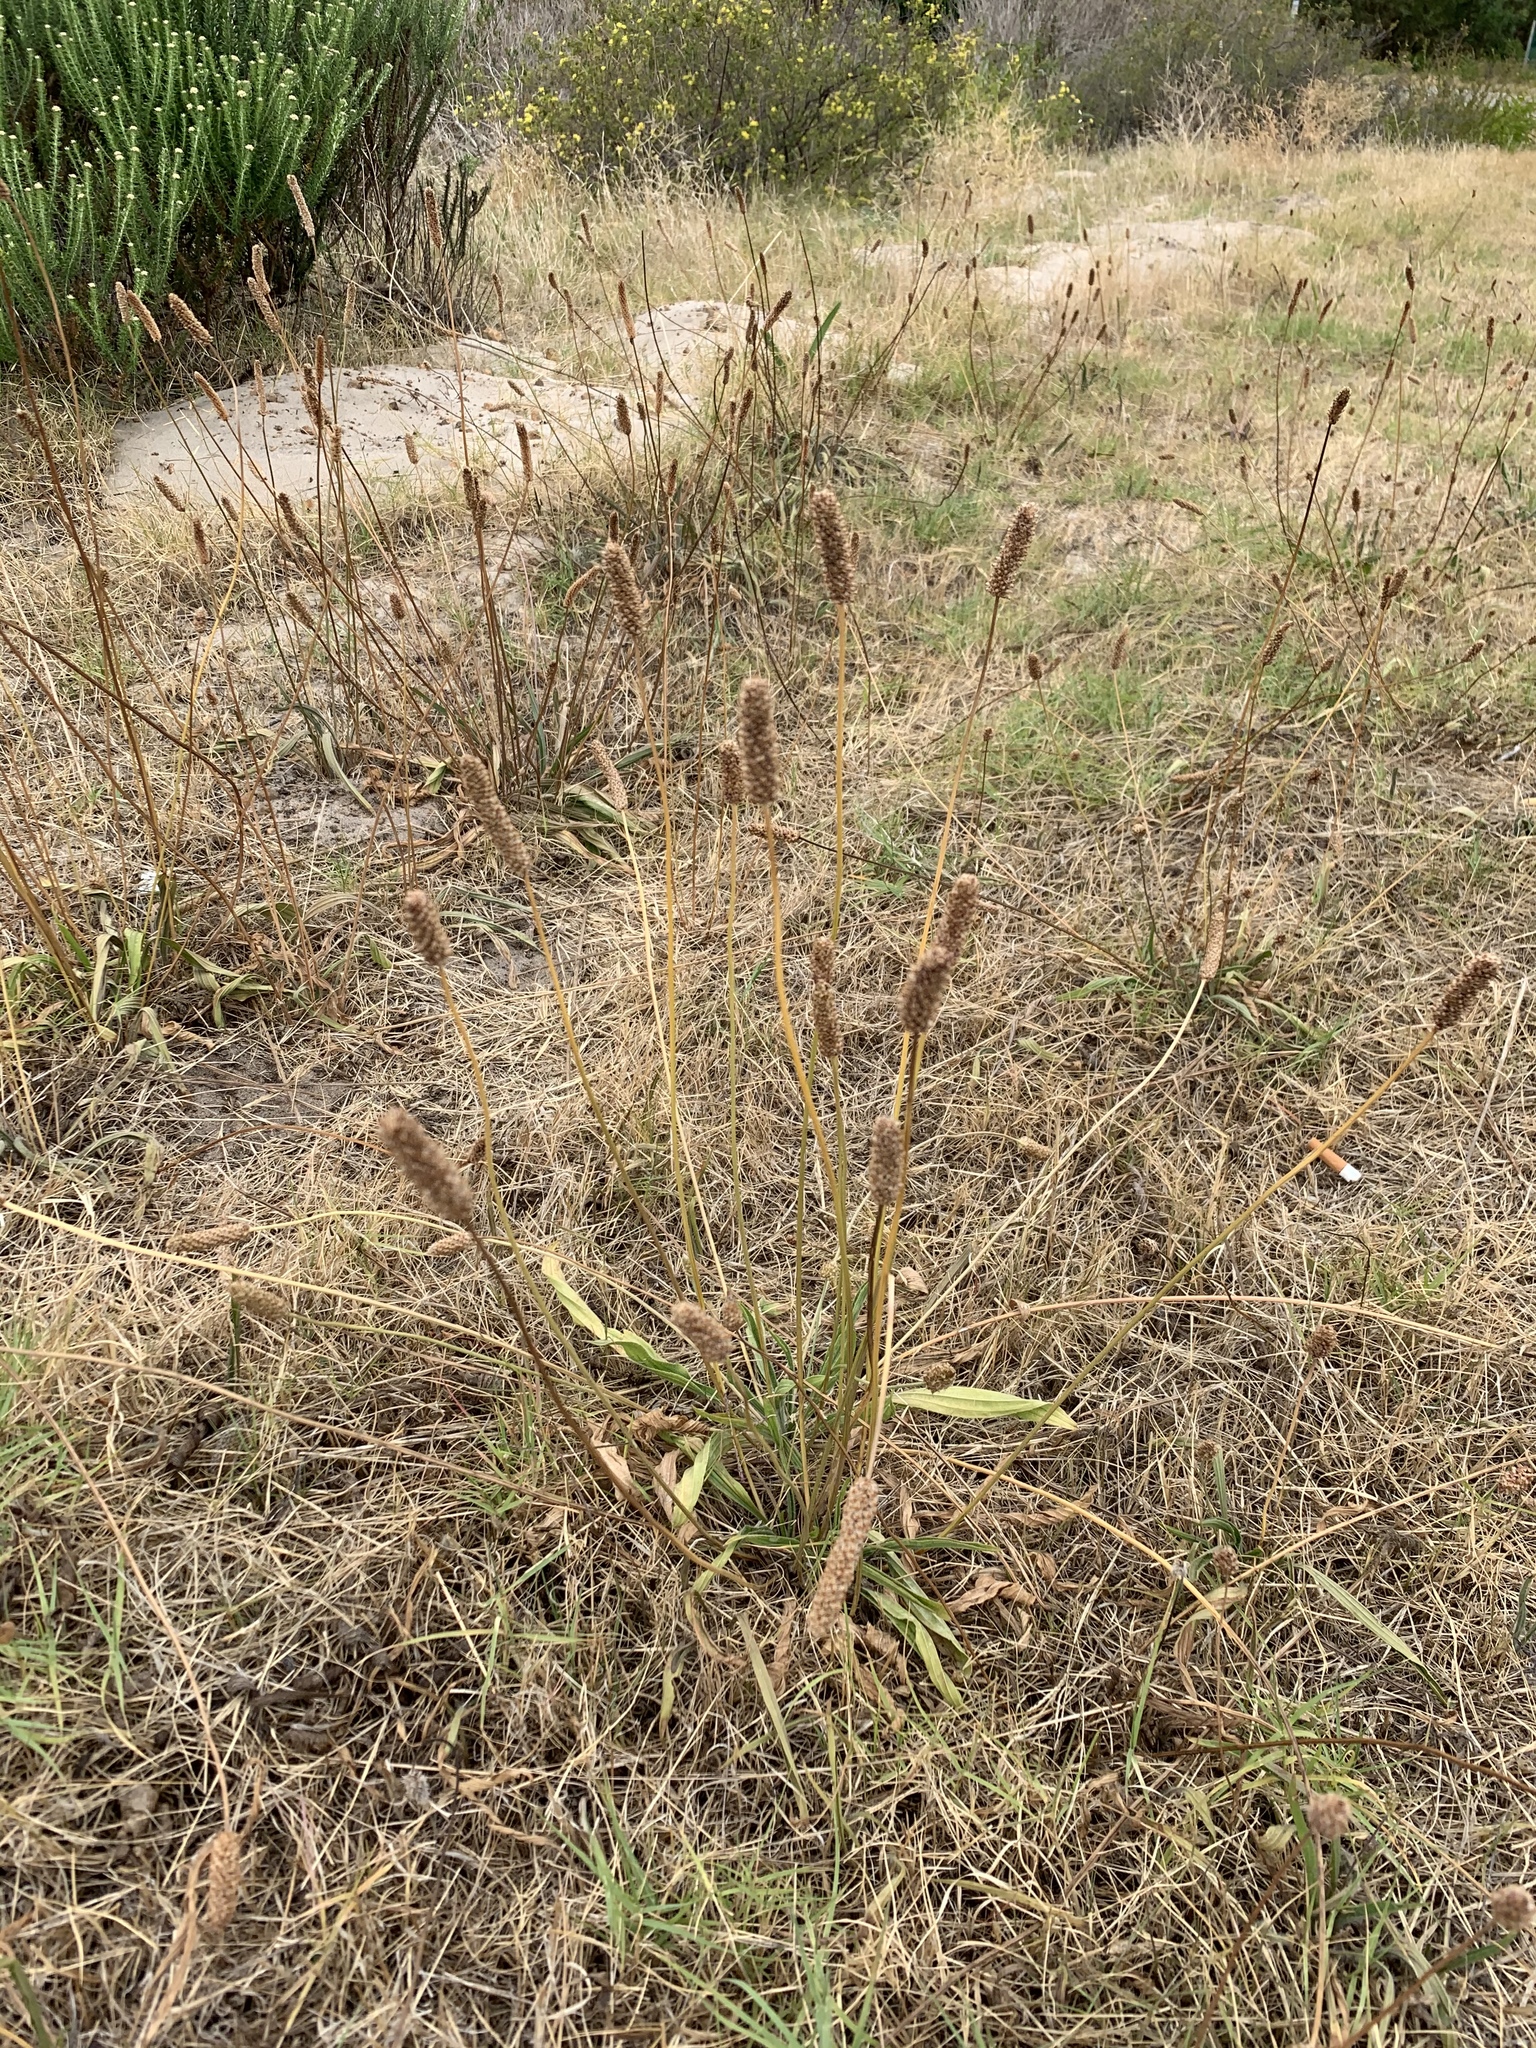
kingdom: Plantae
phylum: Tracheophyta
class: Magnoliopsida
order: Lamiales
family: Plantaginaceae
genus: Plantago
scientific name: Plantago lanceolata
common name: Ribwort plantain
